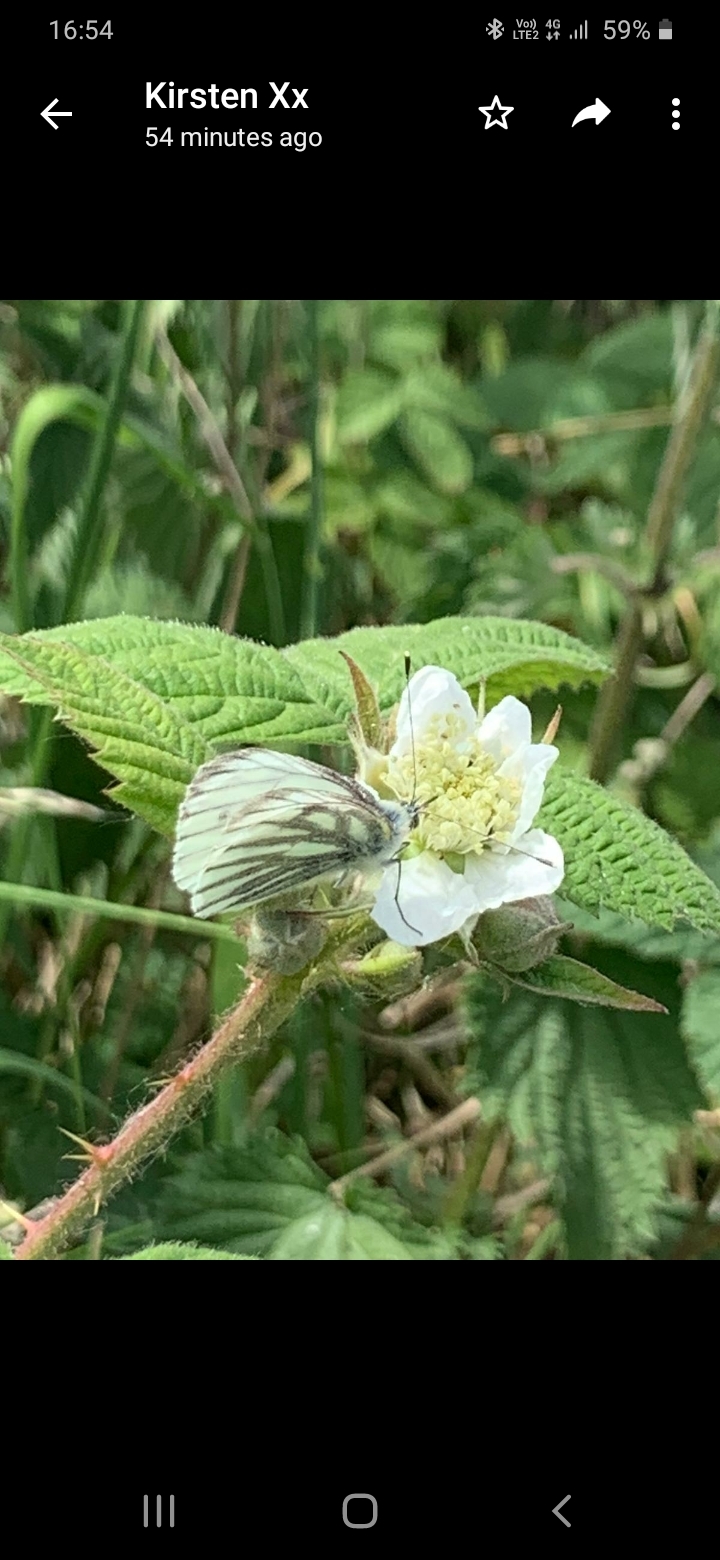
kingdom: Animalia
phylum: Arthropoda
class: Insecta
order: Lepidoptera
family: Pieridae
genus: Pieris
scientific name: Pieris napi
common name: Green-veined white
